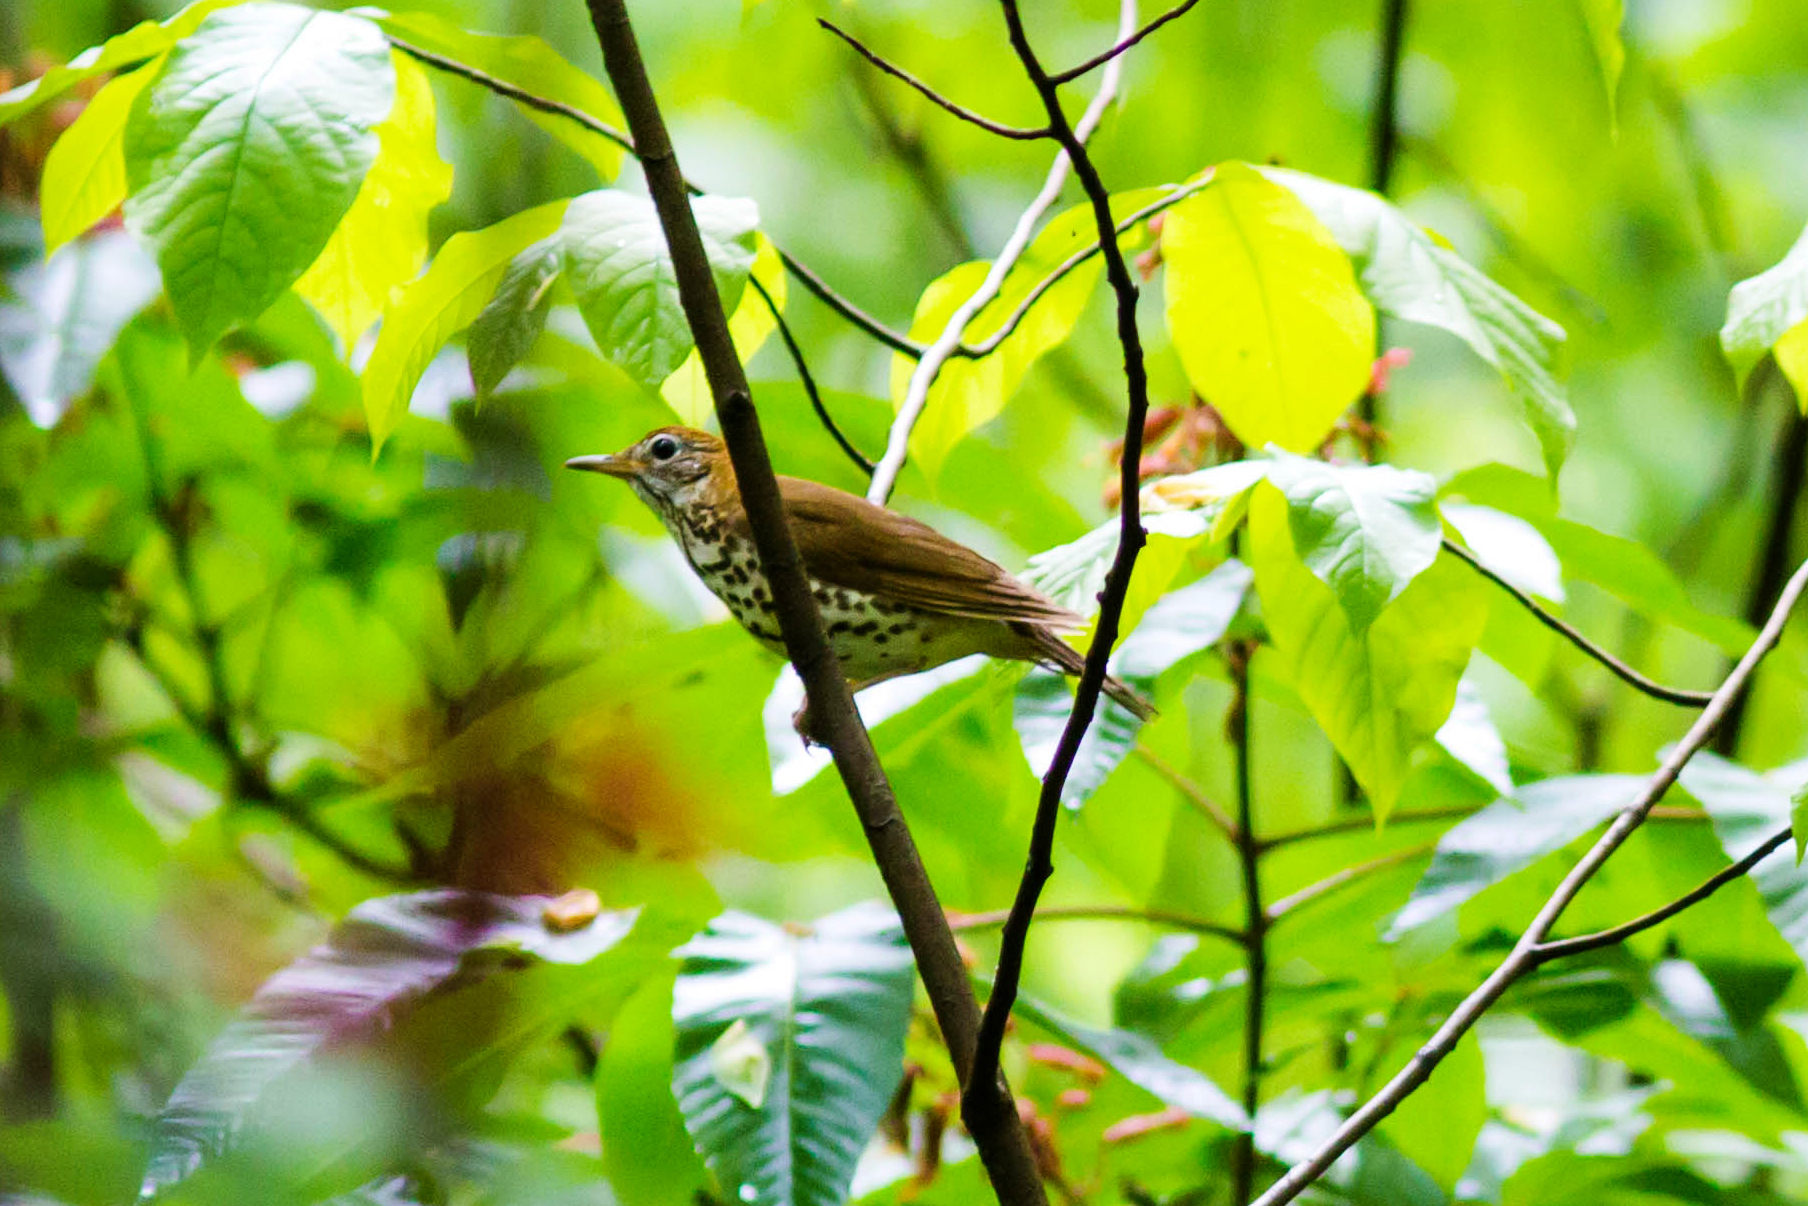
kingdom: Animalia
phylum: Chordata
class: Aves
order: Passeriformes
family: Turdidae
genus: Hylocichla
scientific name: Hylocichla mustelina
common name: Wood thrush
